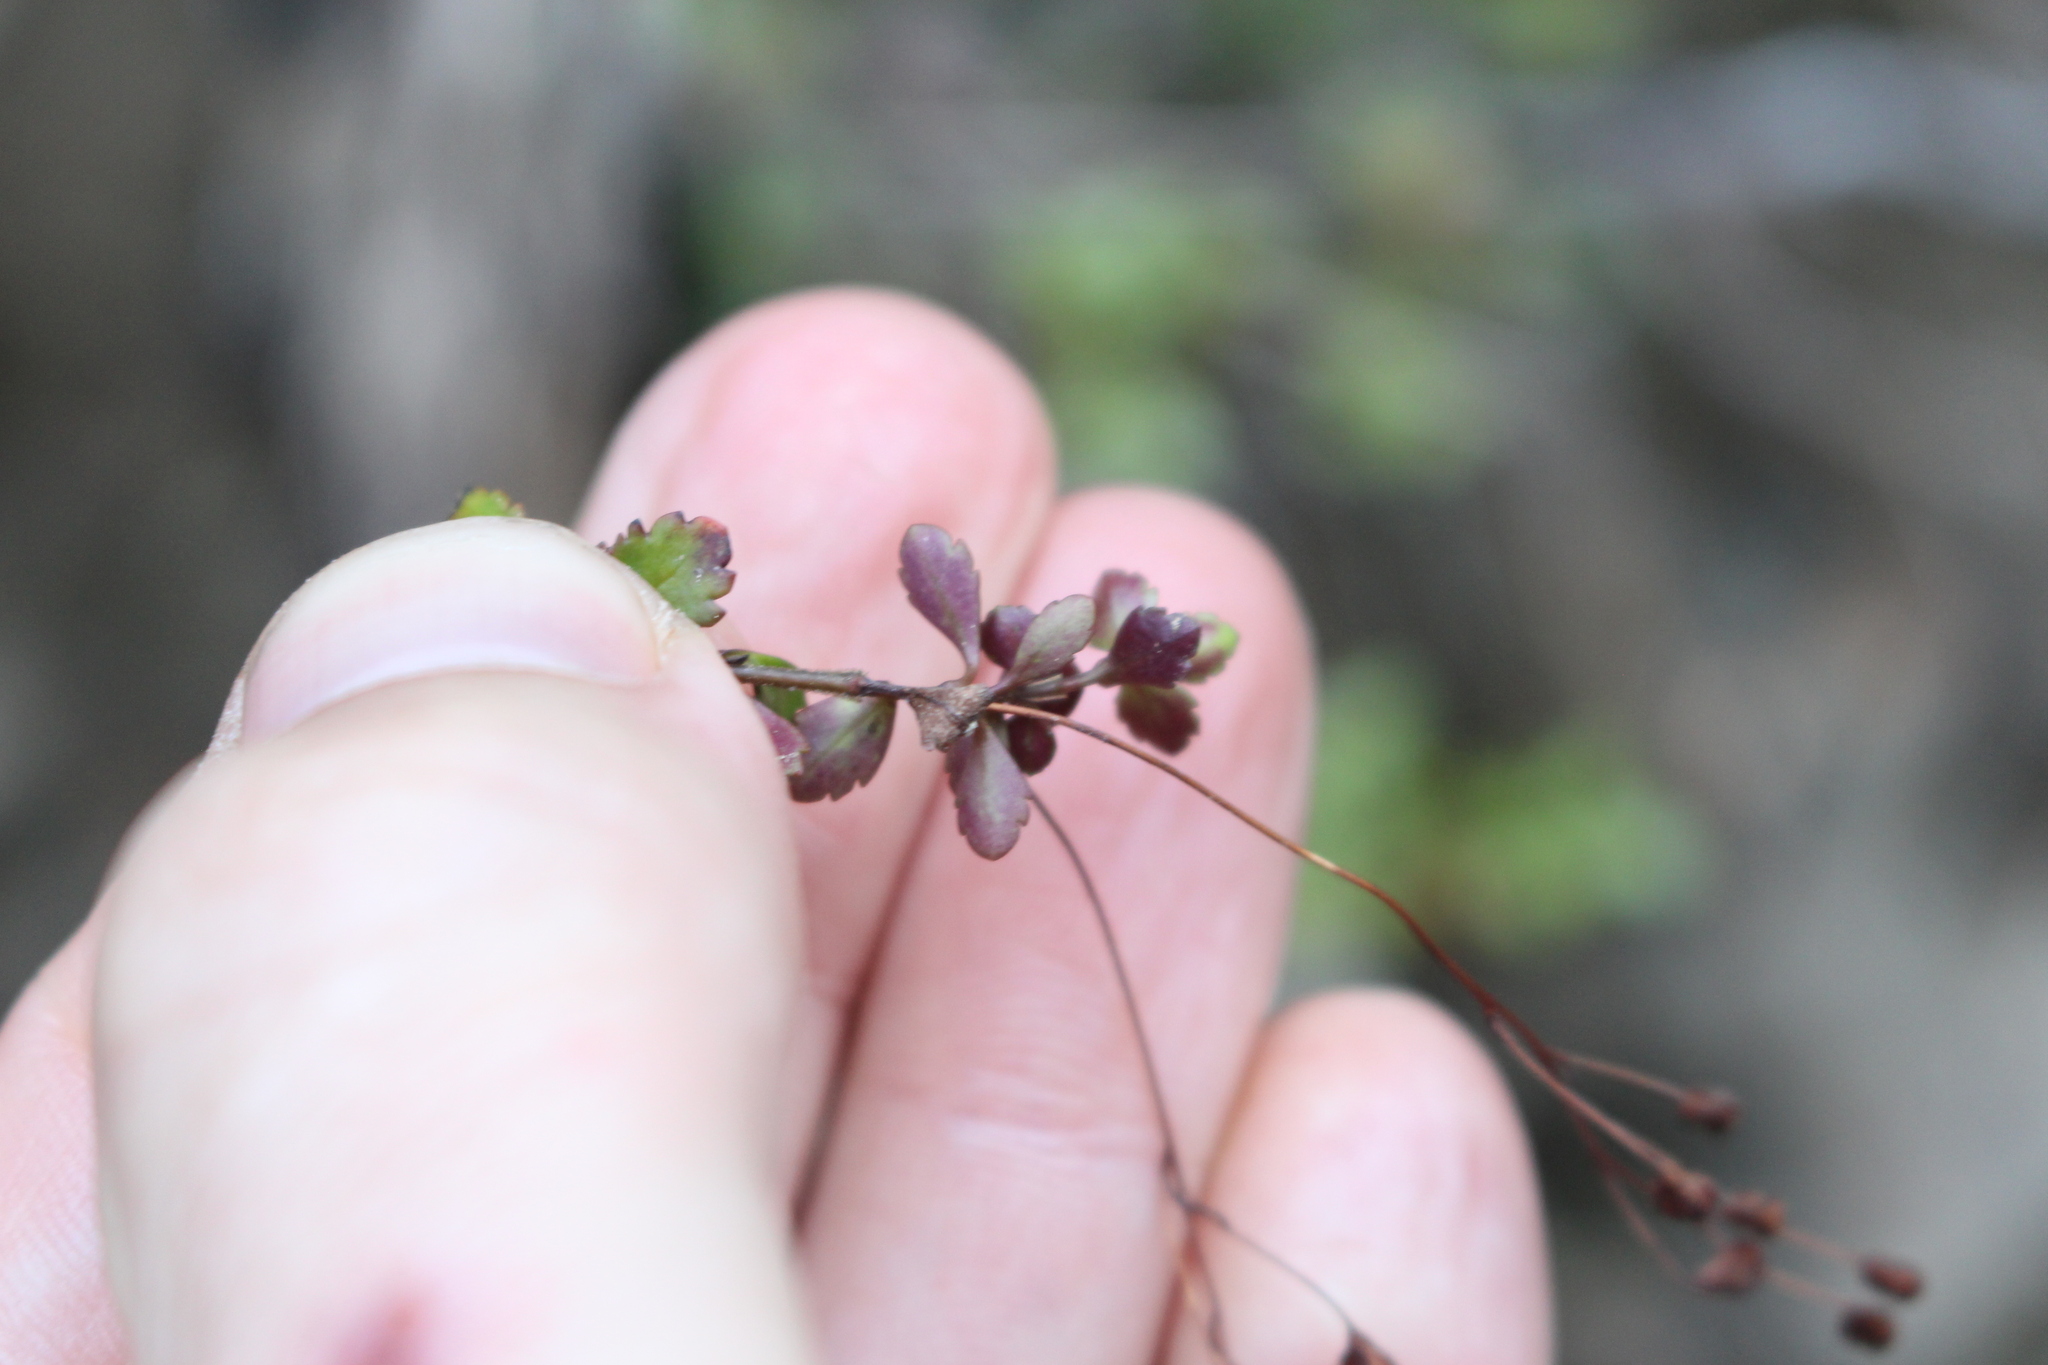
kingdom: Plantae
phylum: Tracheophyta
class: Magnoliopsida
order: Lamiales
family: Plantaginaceae
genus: Veronica
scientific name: Veronica lyallii
